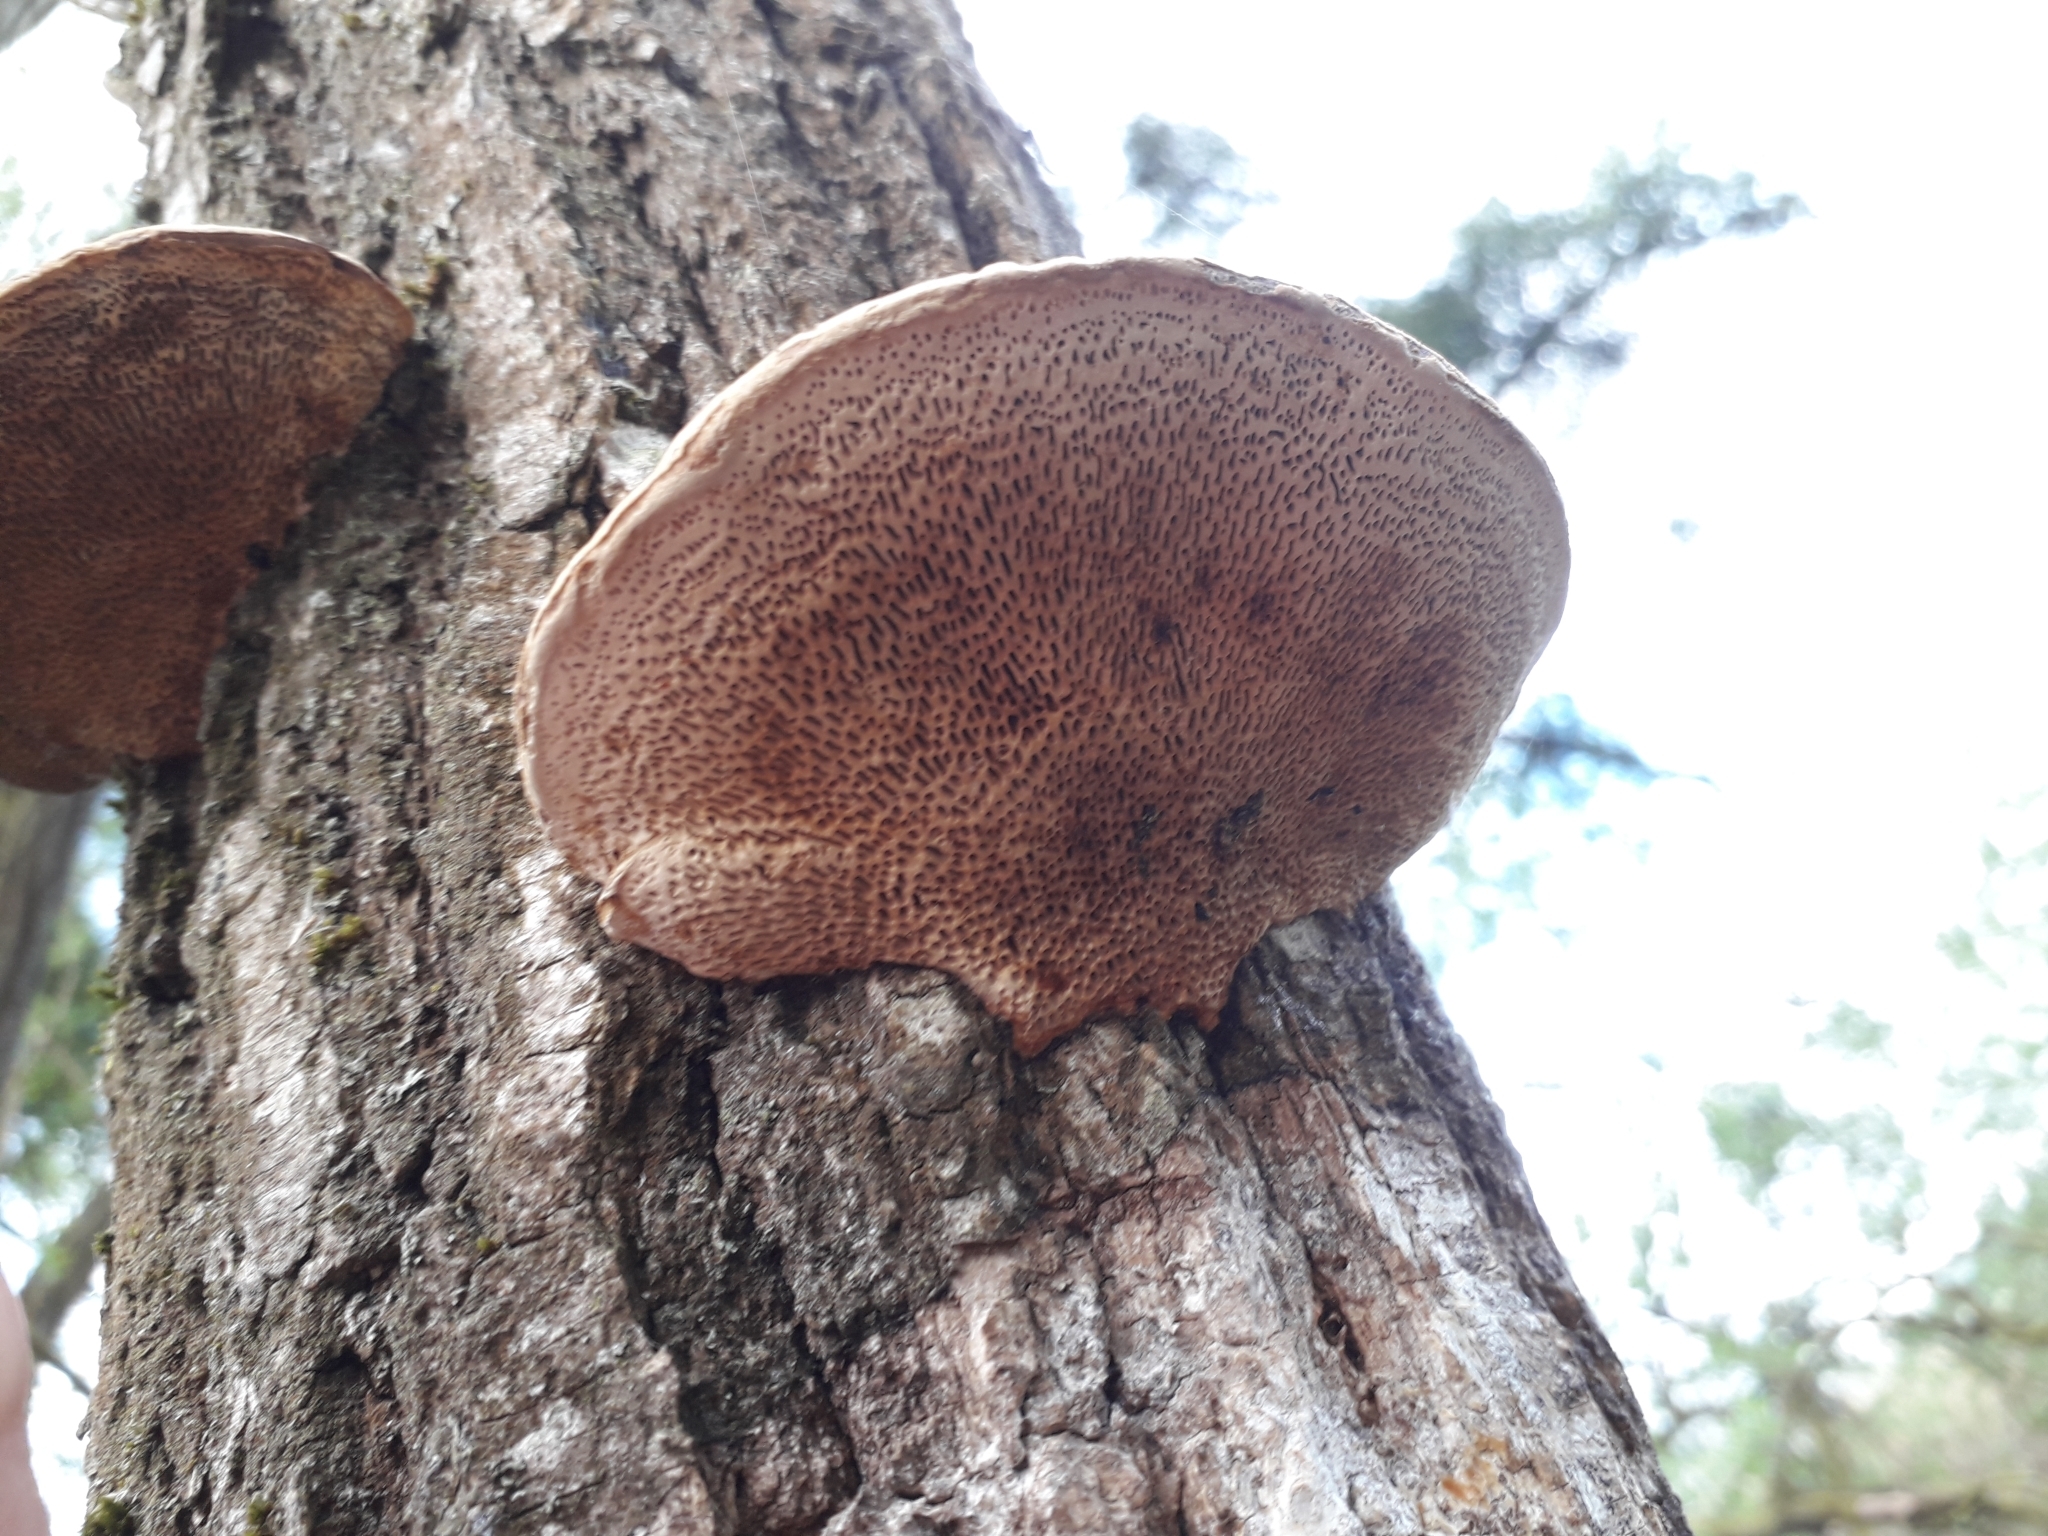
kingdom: Fungi
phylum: Basidiomycota
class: Agaricomycetes
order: Polyporales
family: Polyporaceae
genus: Daedaleopsis
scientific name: Daedaleopsis confragosa
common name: Blushing bracket
